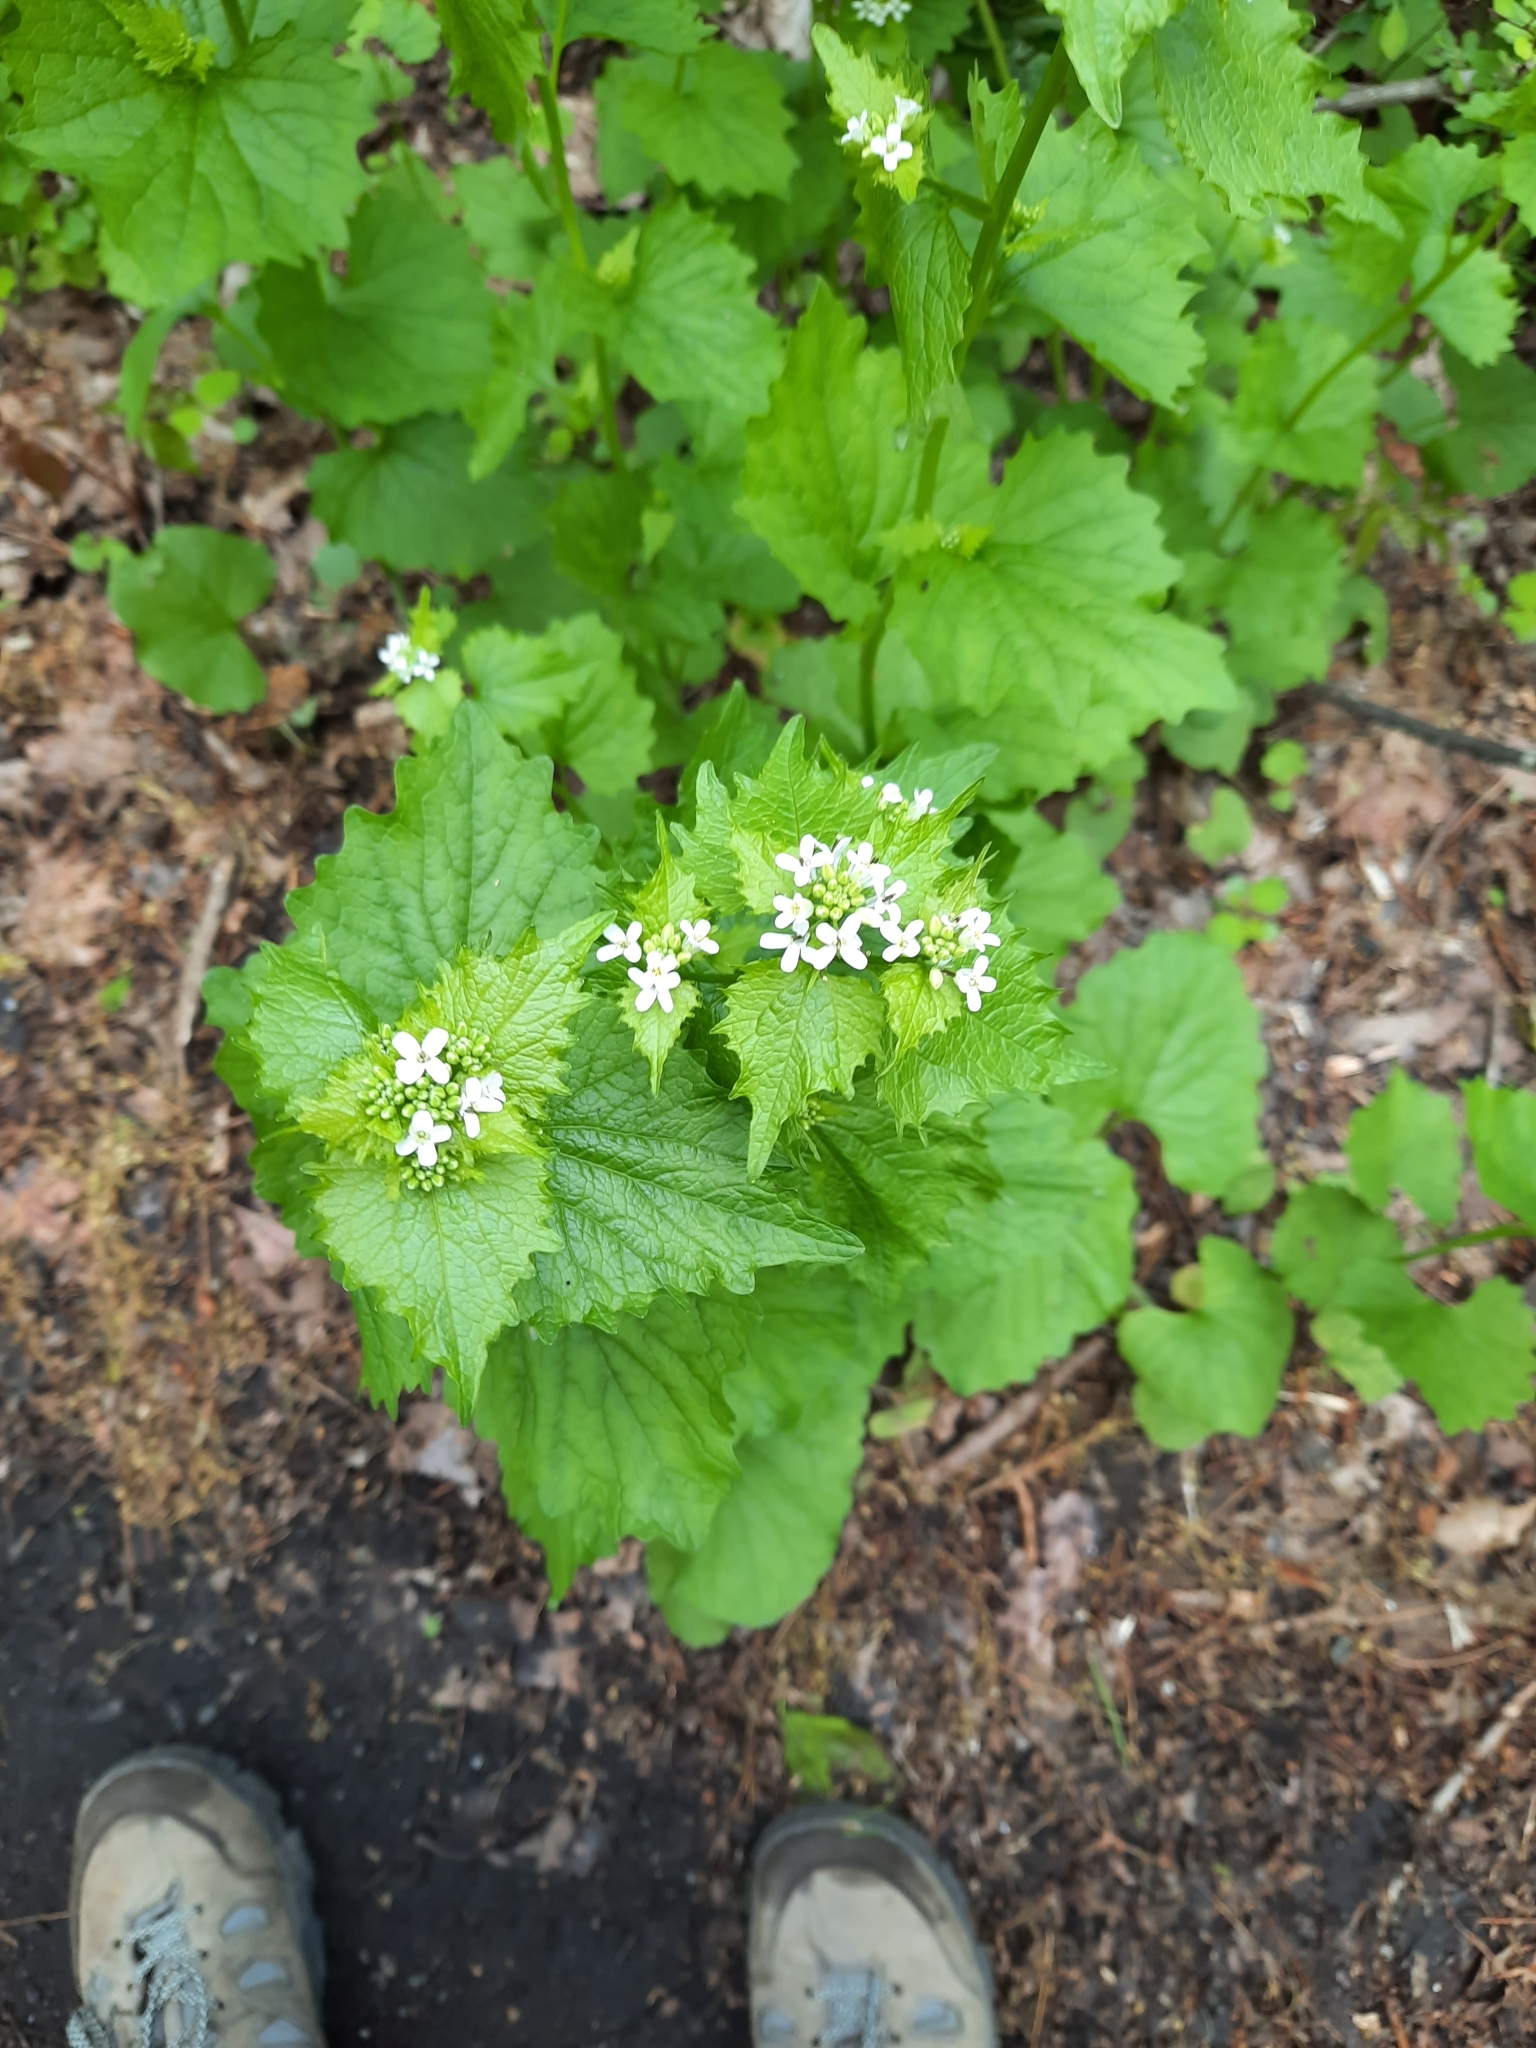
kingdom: Plantae
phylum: Tracheophyta
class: Magnoliopsida
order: Brassicales
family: Brassicaceae
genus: Alliaria
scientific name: Alliaria petiolata
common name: Garlic mustard
